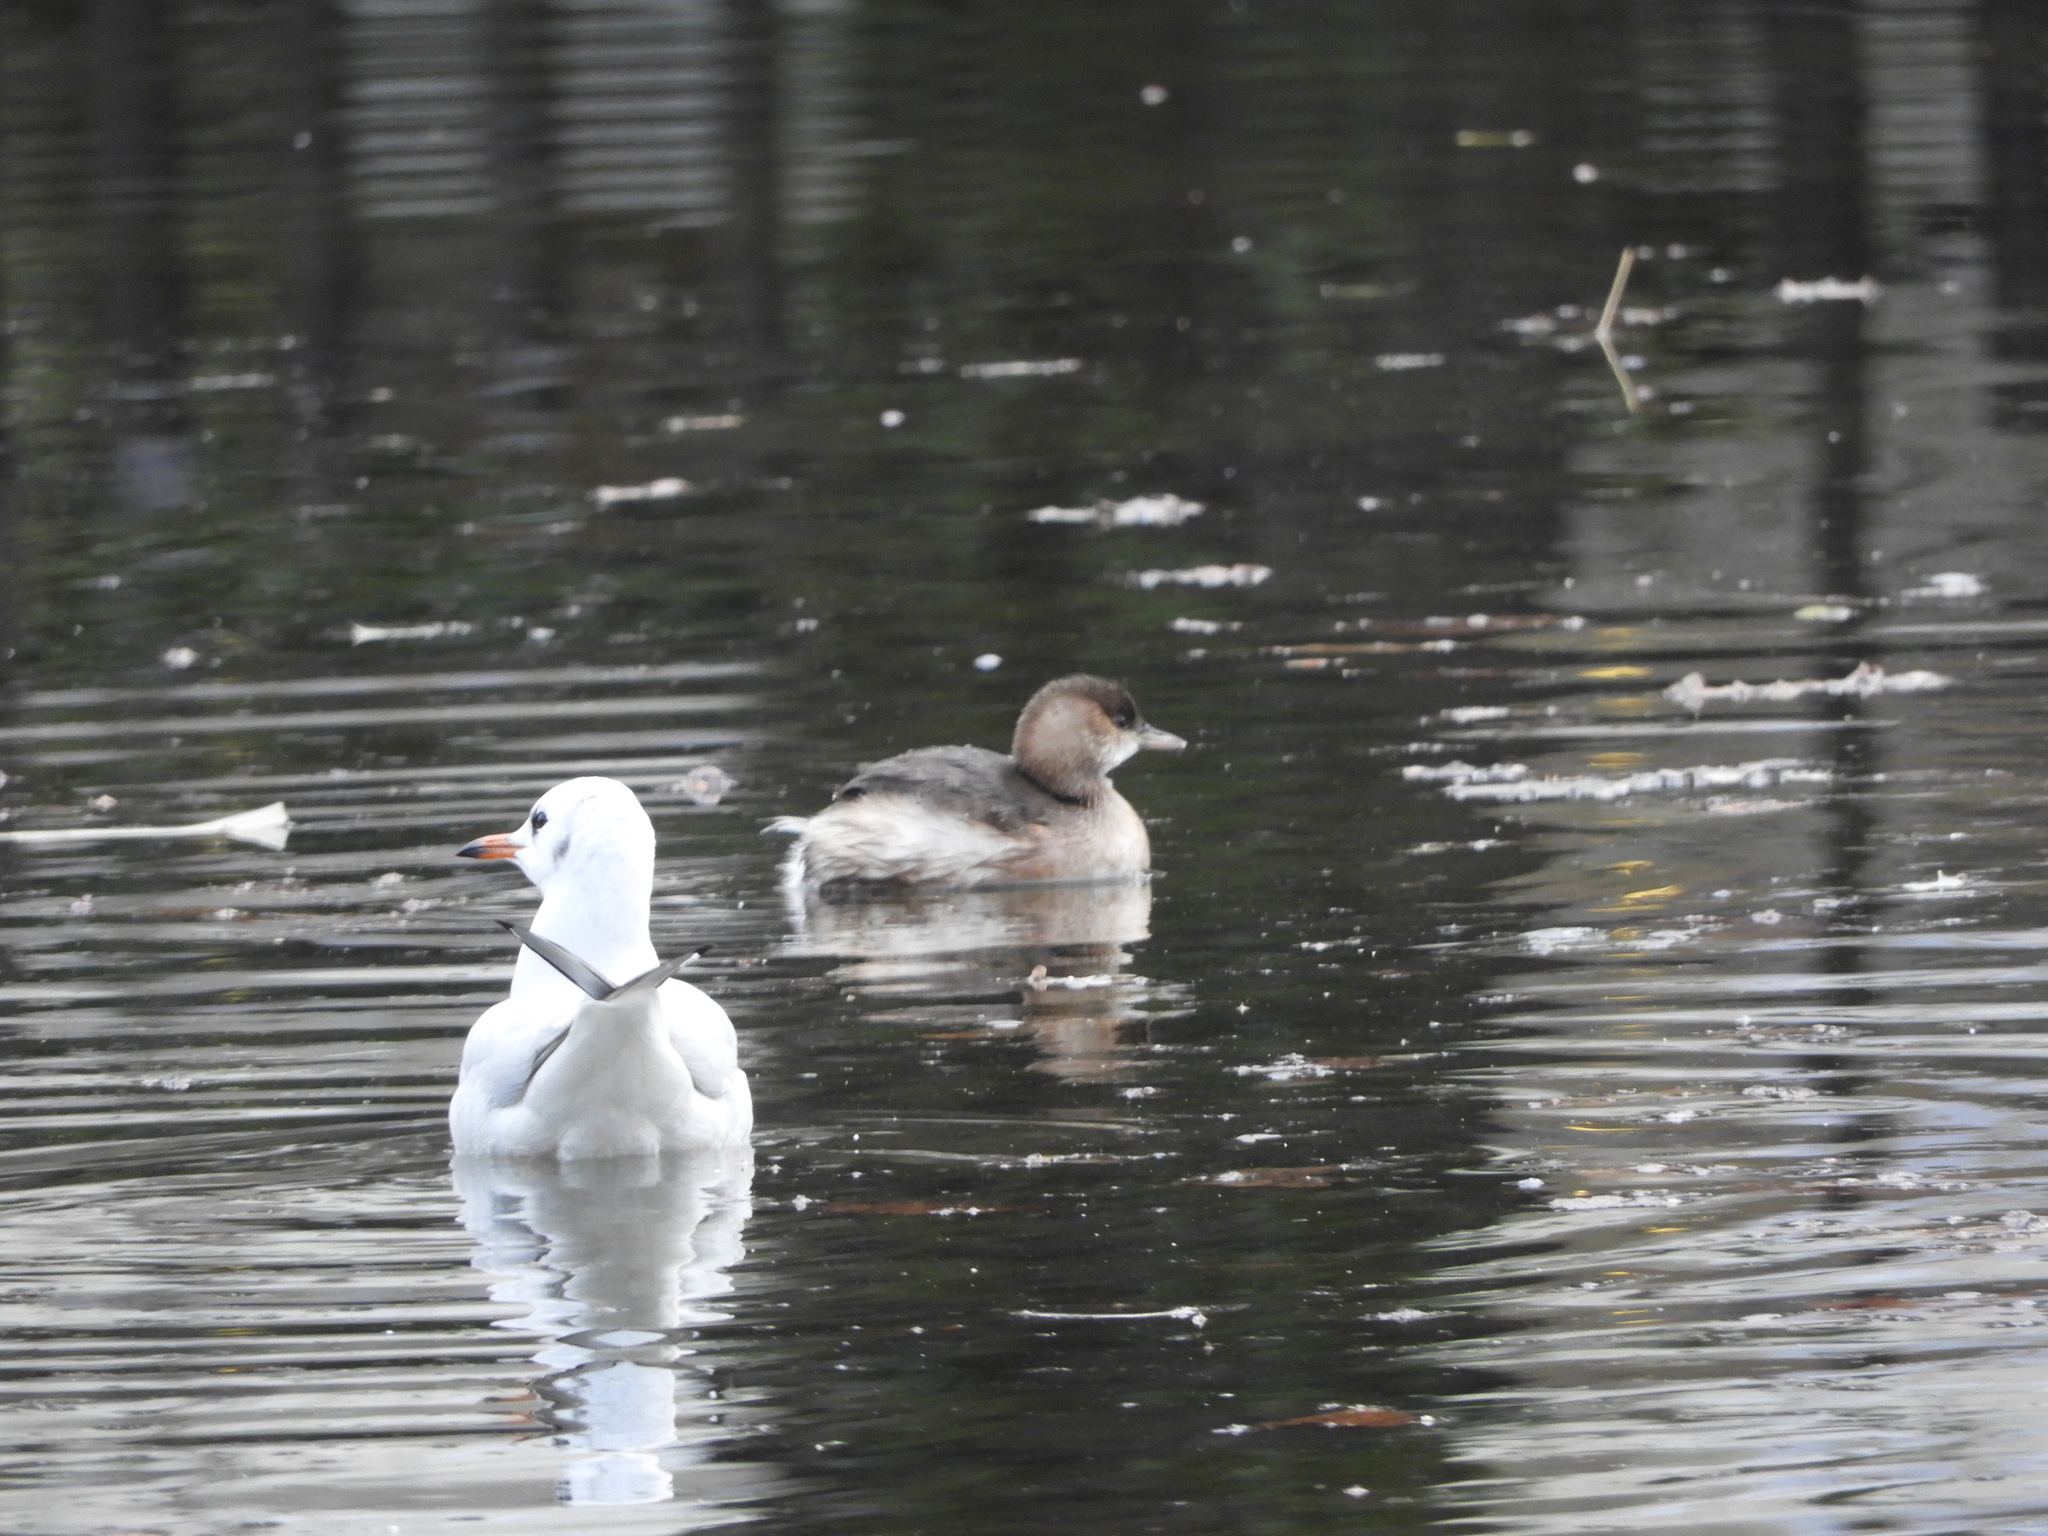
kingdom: Animalia
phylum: Chordata
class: Aves
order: Podicipediformes
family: Podicipedidae
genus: Tachybaptus
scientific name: Tachybaptus ruficollis
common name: Little grebe
